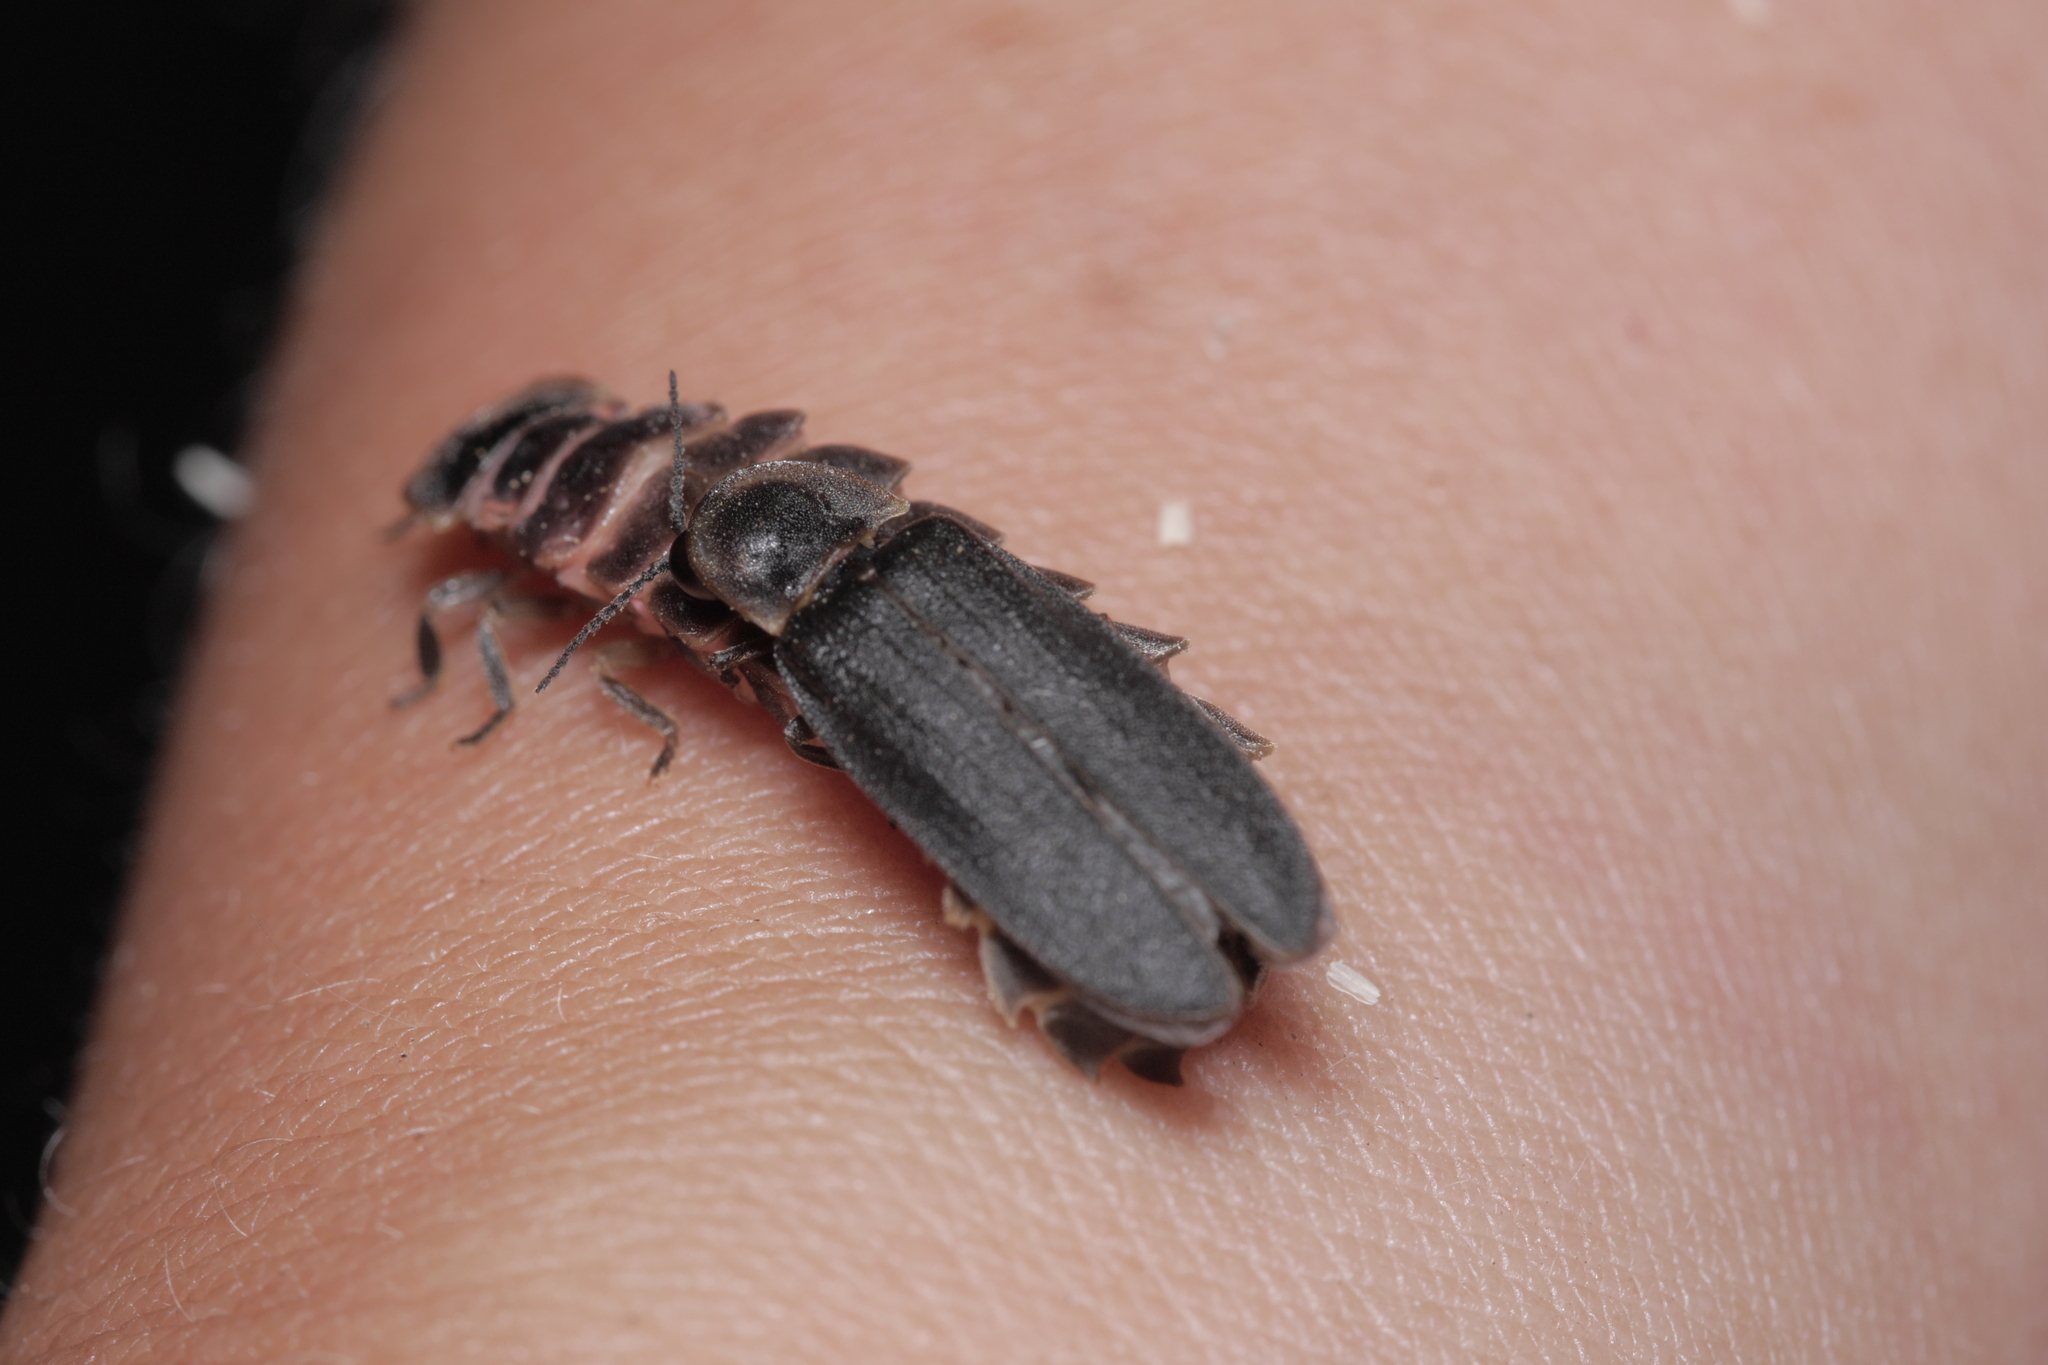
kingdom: Animalia
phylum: Arthropoda
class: Insecta
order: Coleoptera
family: Lampyridae
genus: Lampyris
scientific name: Lampyris noctiluca
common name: Glow-worm
